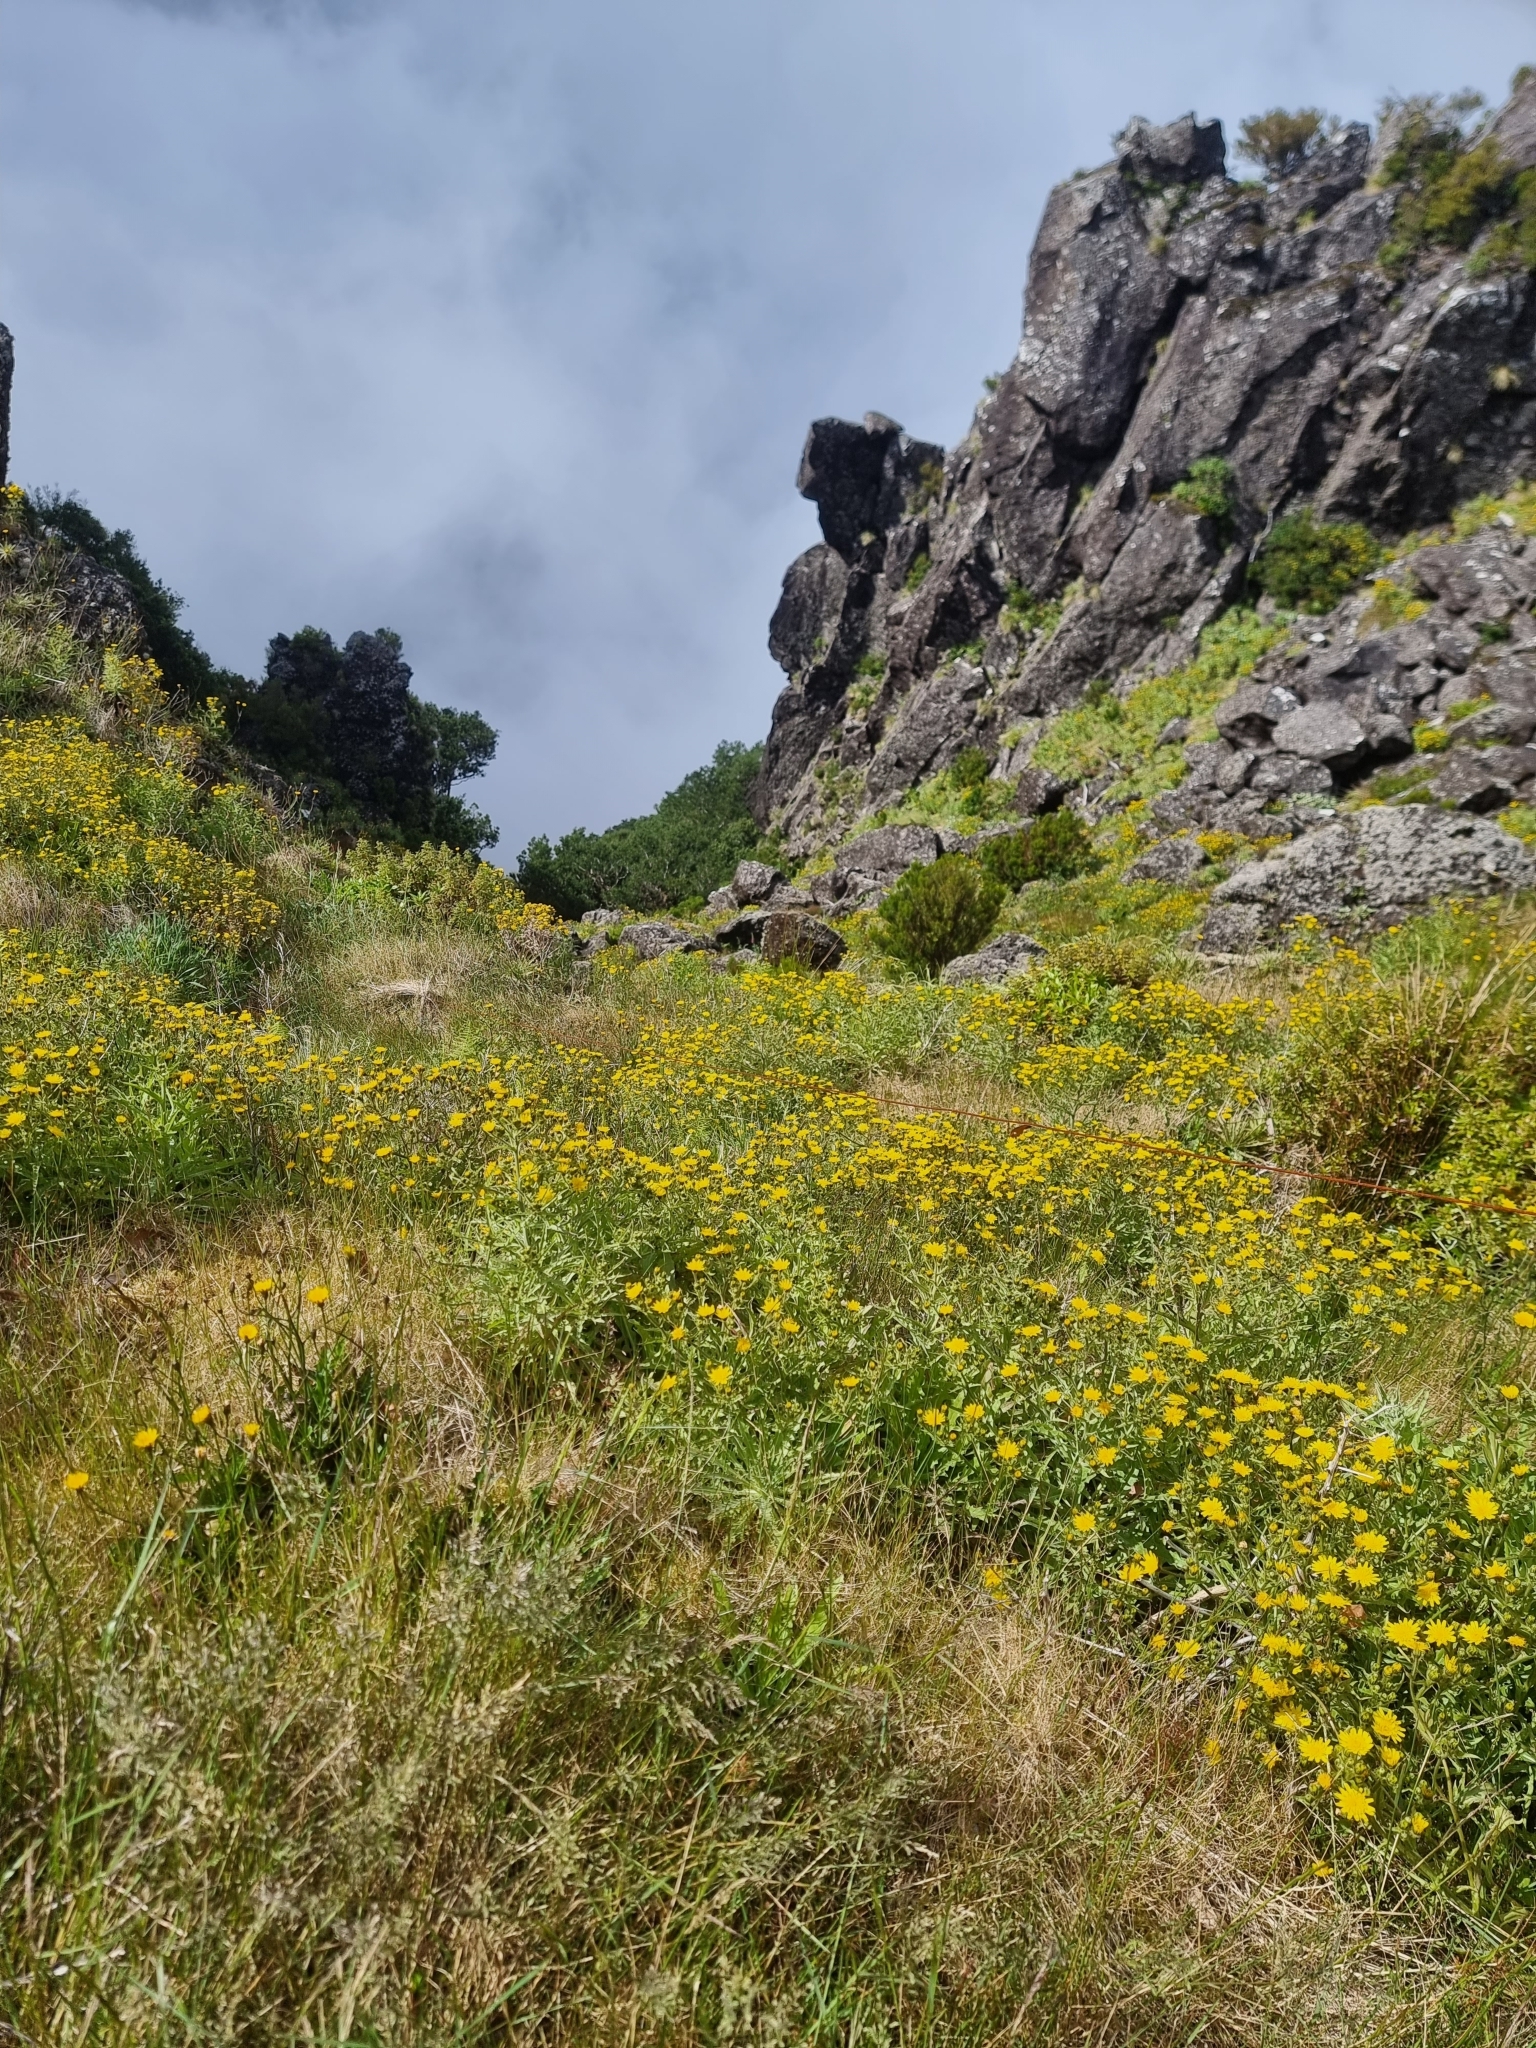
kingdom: Plantae
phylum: Tracheophyta
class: Magnoliopsida
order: Asterales
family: Asteraceae
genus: Andryala
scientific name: Andryala glandulosa
